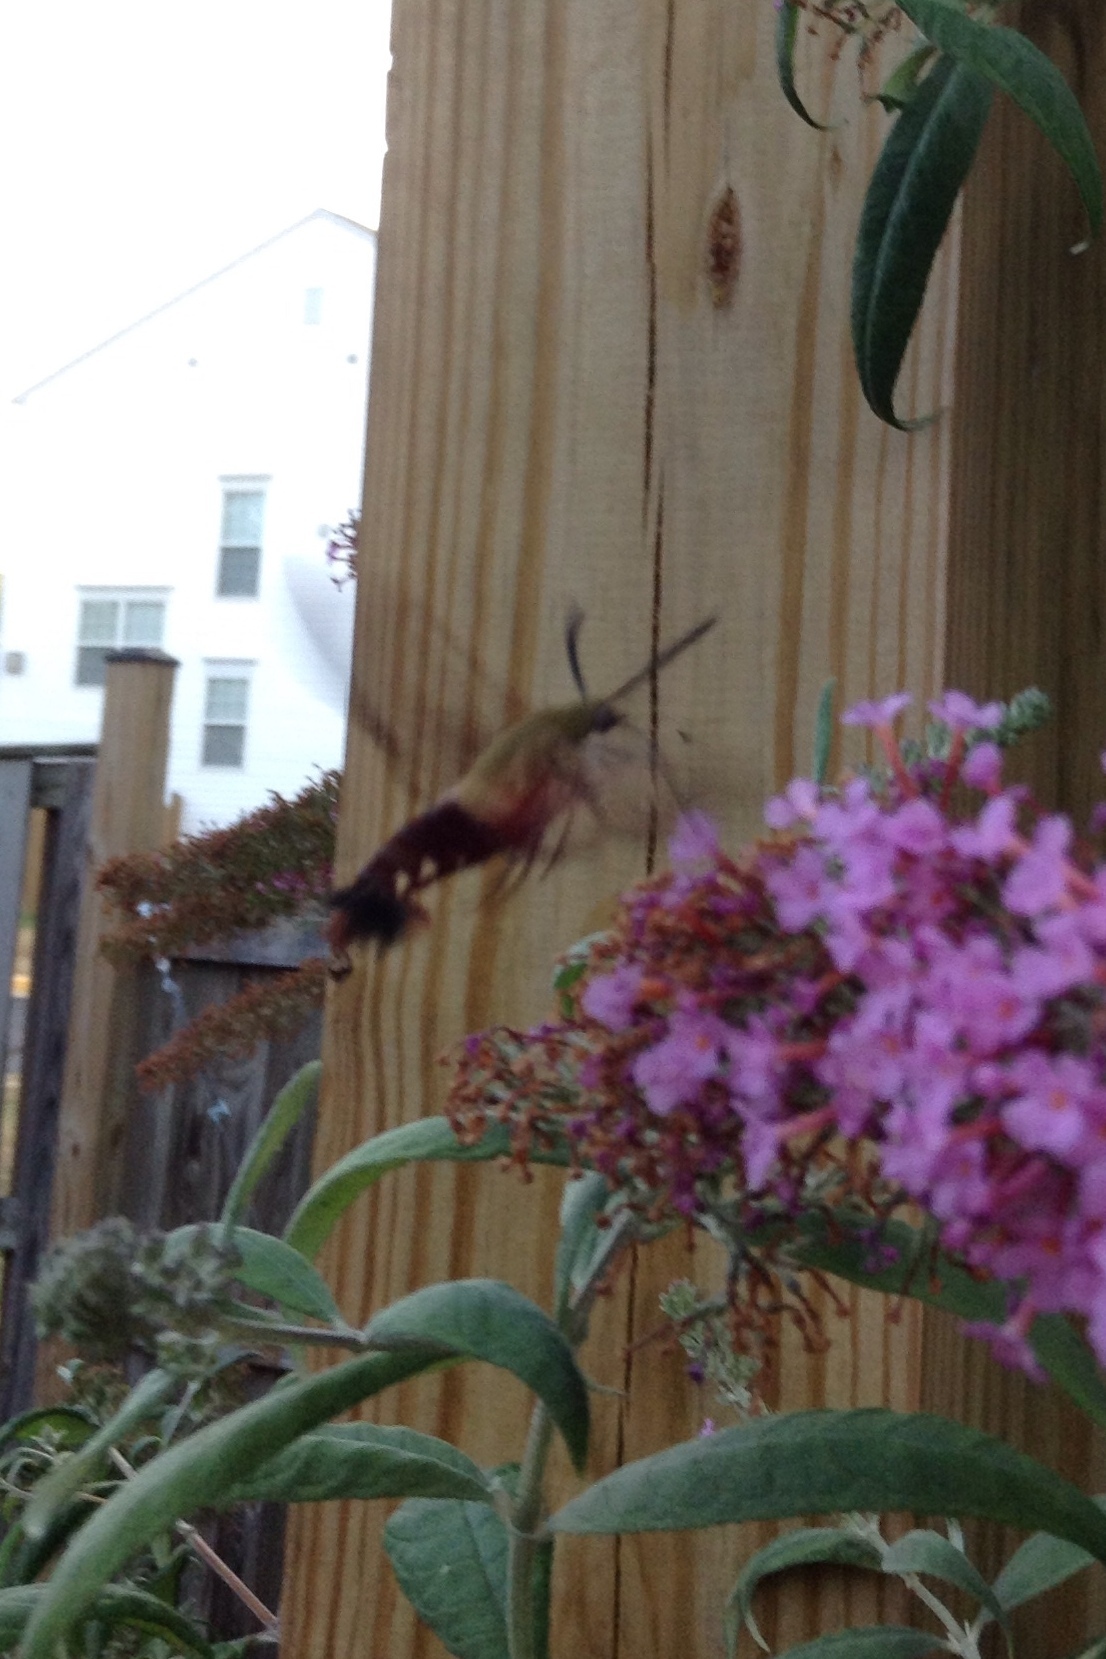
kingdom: Animalia
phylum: Arthropoda
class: Insecta
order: Lepidoptera
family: Sphingidae
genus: Hemaris
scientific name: Hemaris thysbe
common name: Common clear-wing
